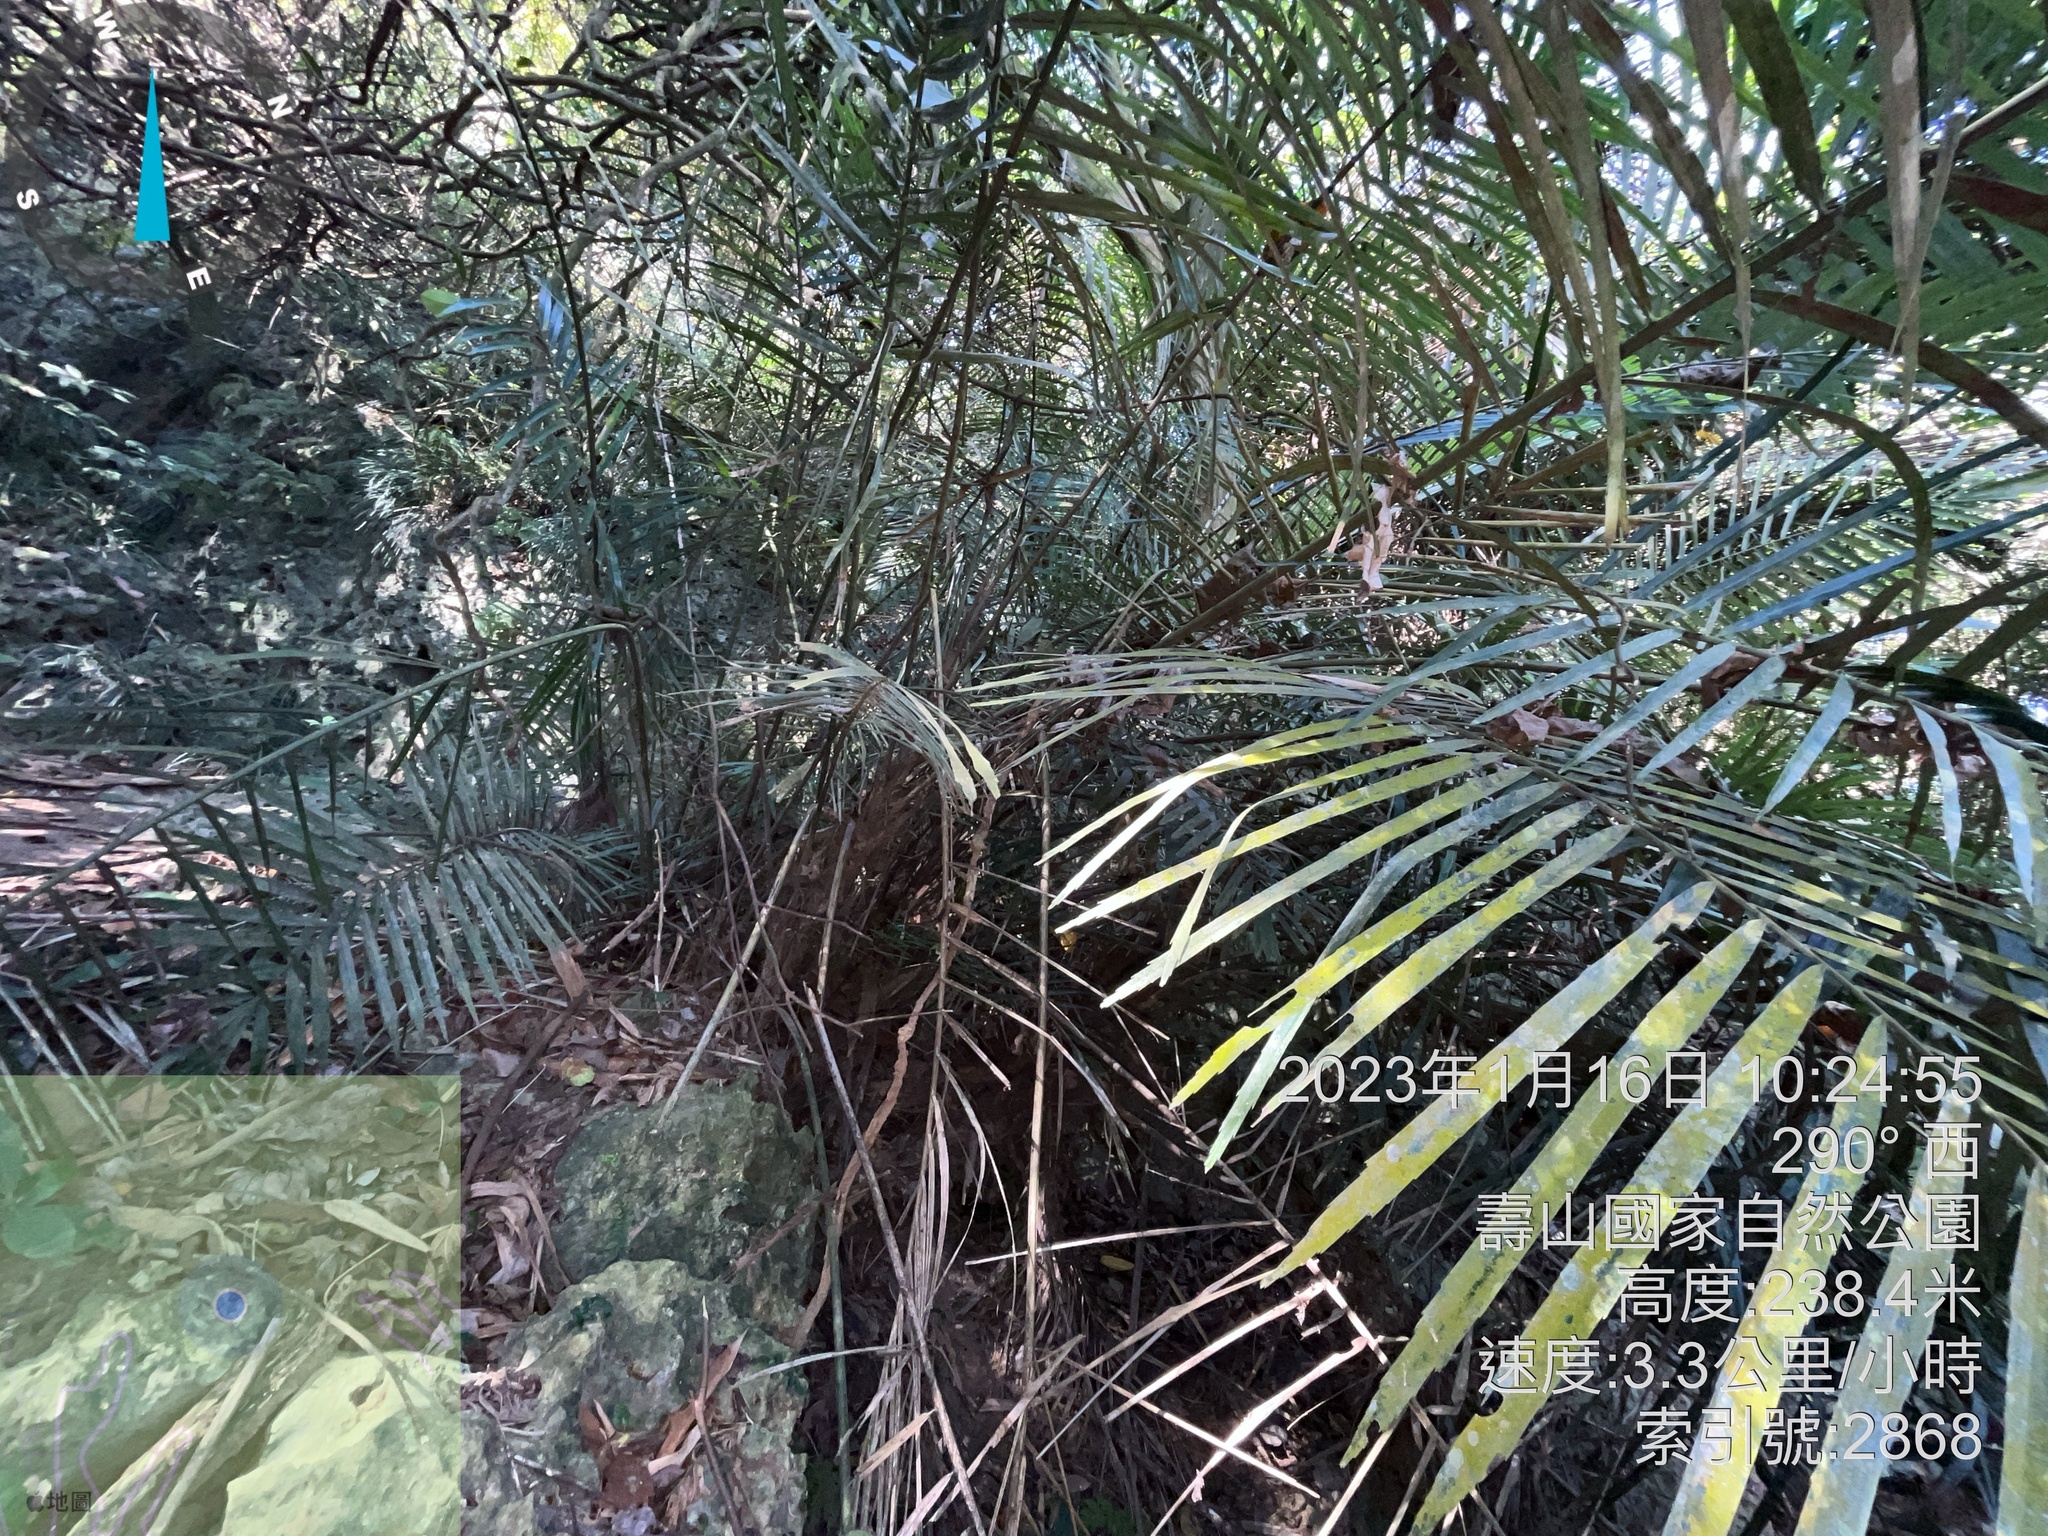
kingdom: Plantae
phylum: Tracheophyta
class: Liliopsida
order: Arecales
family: Arecaceae
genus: Arenga
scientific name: Arenga engleri
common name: Formosan sugar palm
